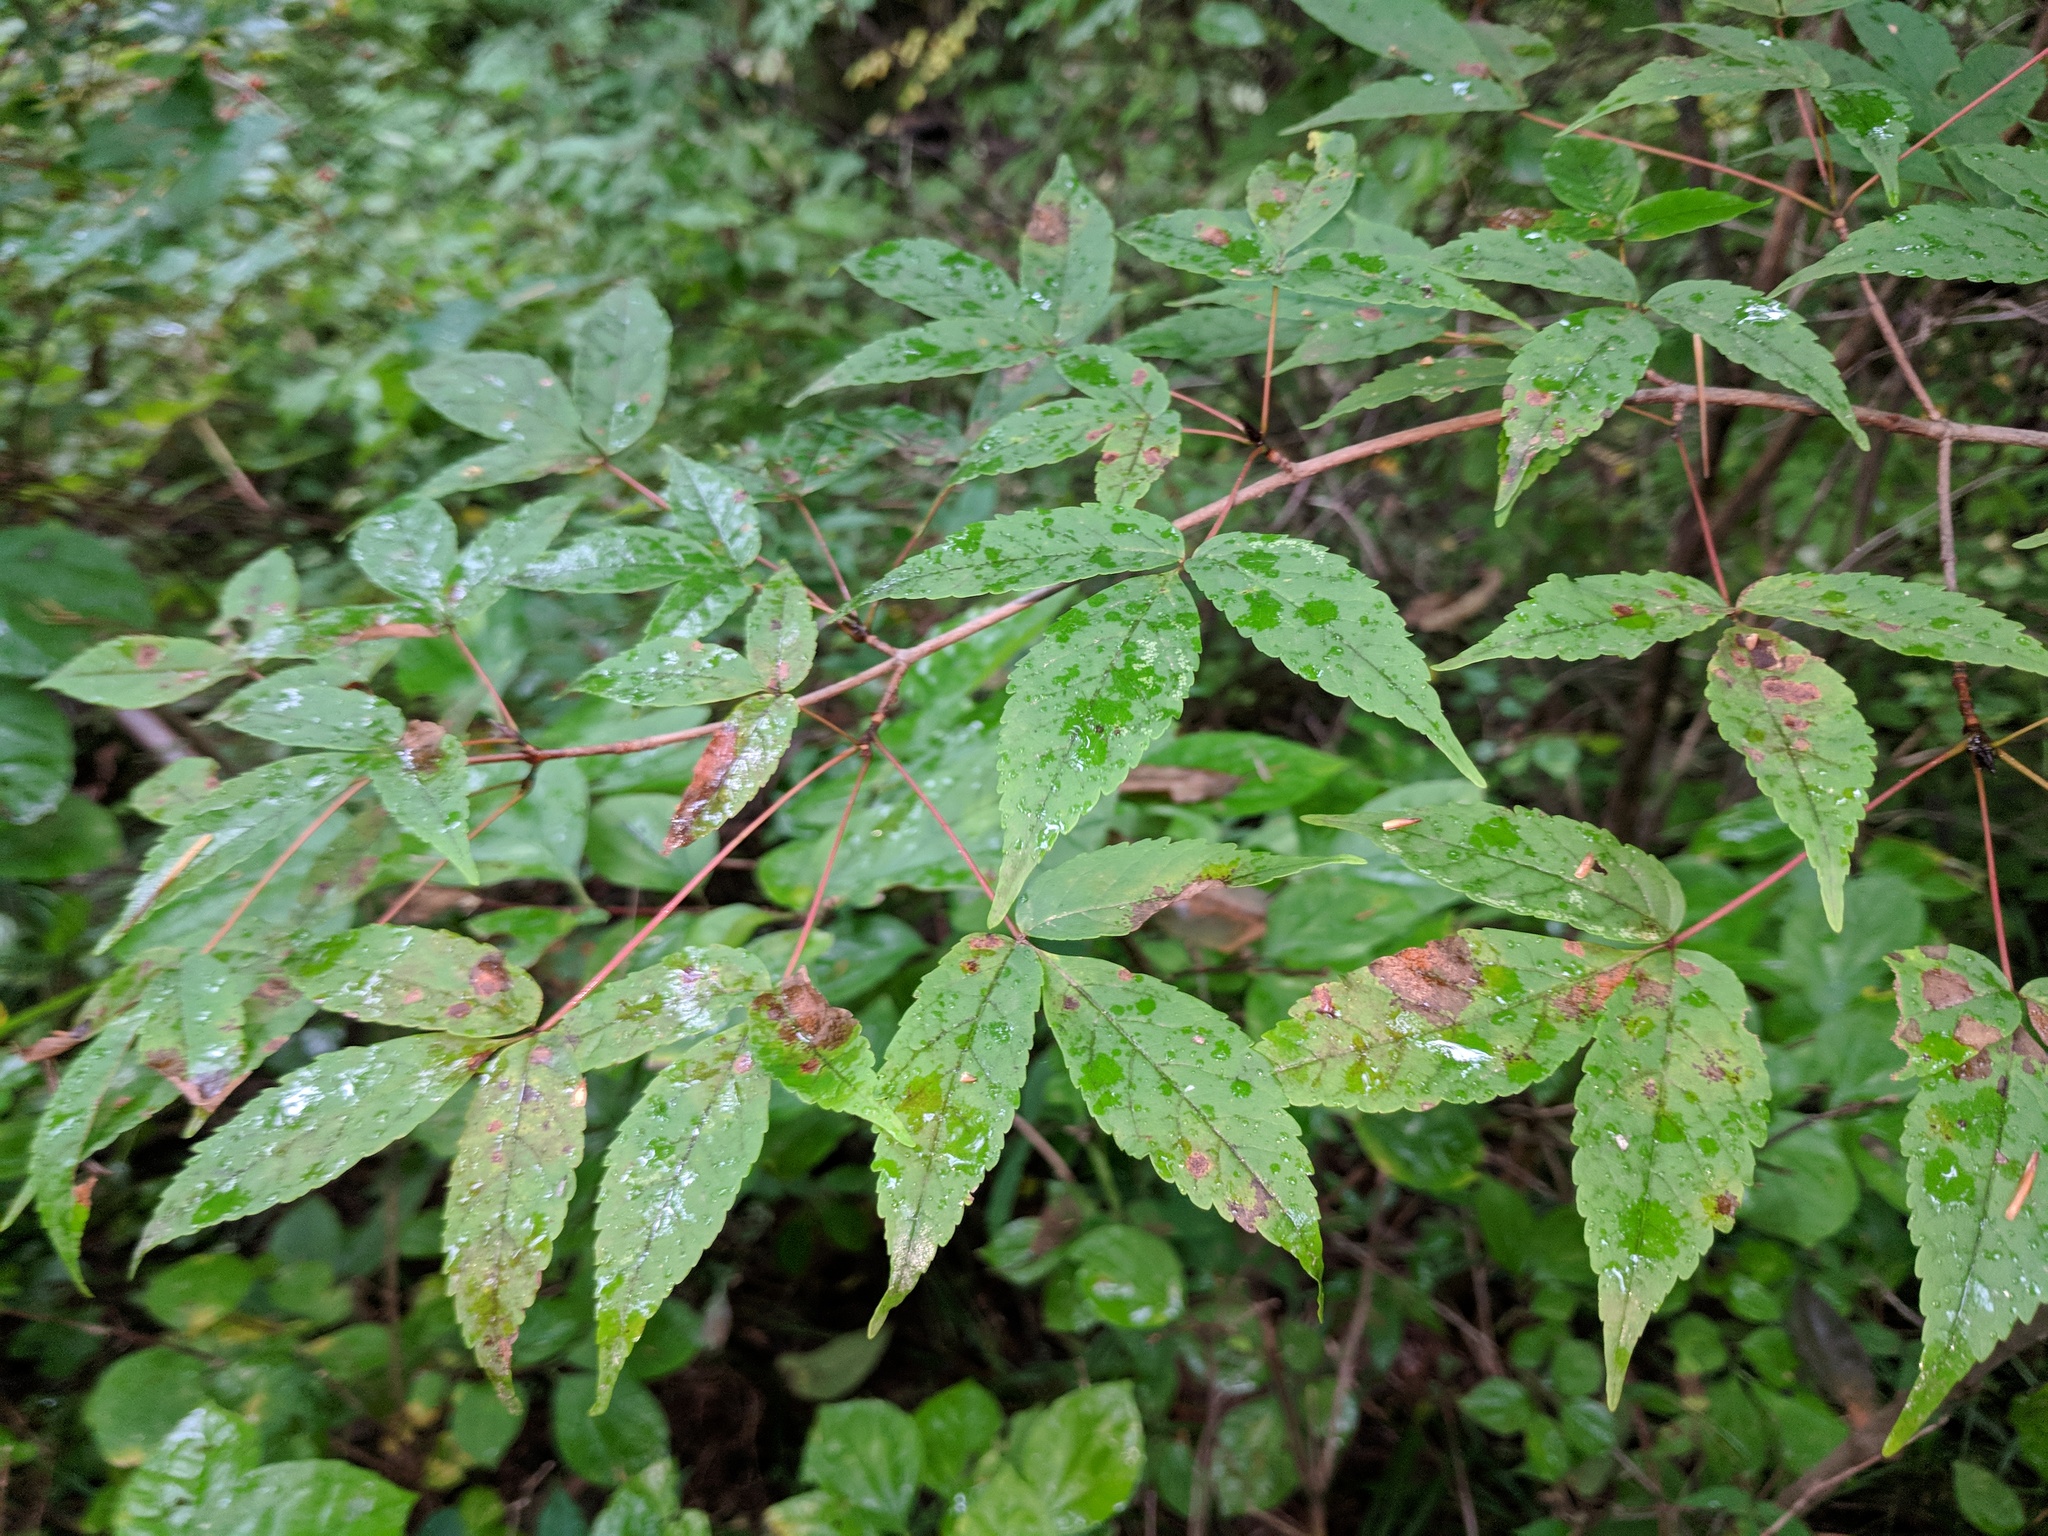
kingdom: Plantae
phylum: Tracheophyta
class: Magnoliopsida
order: Sapindales
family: Sapindaceae
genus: Acer
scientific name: Acer mandshuricum
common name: Manchurian maple
